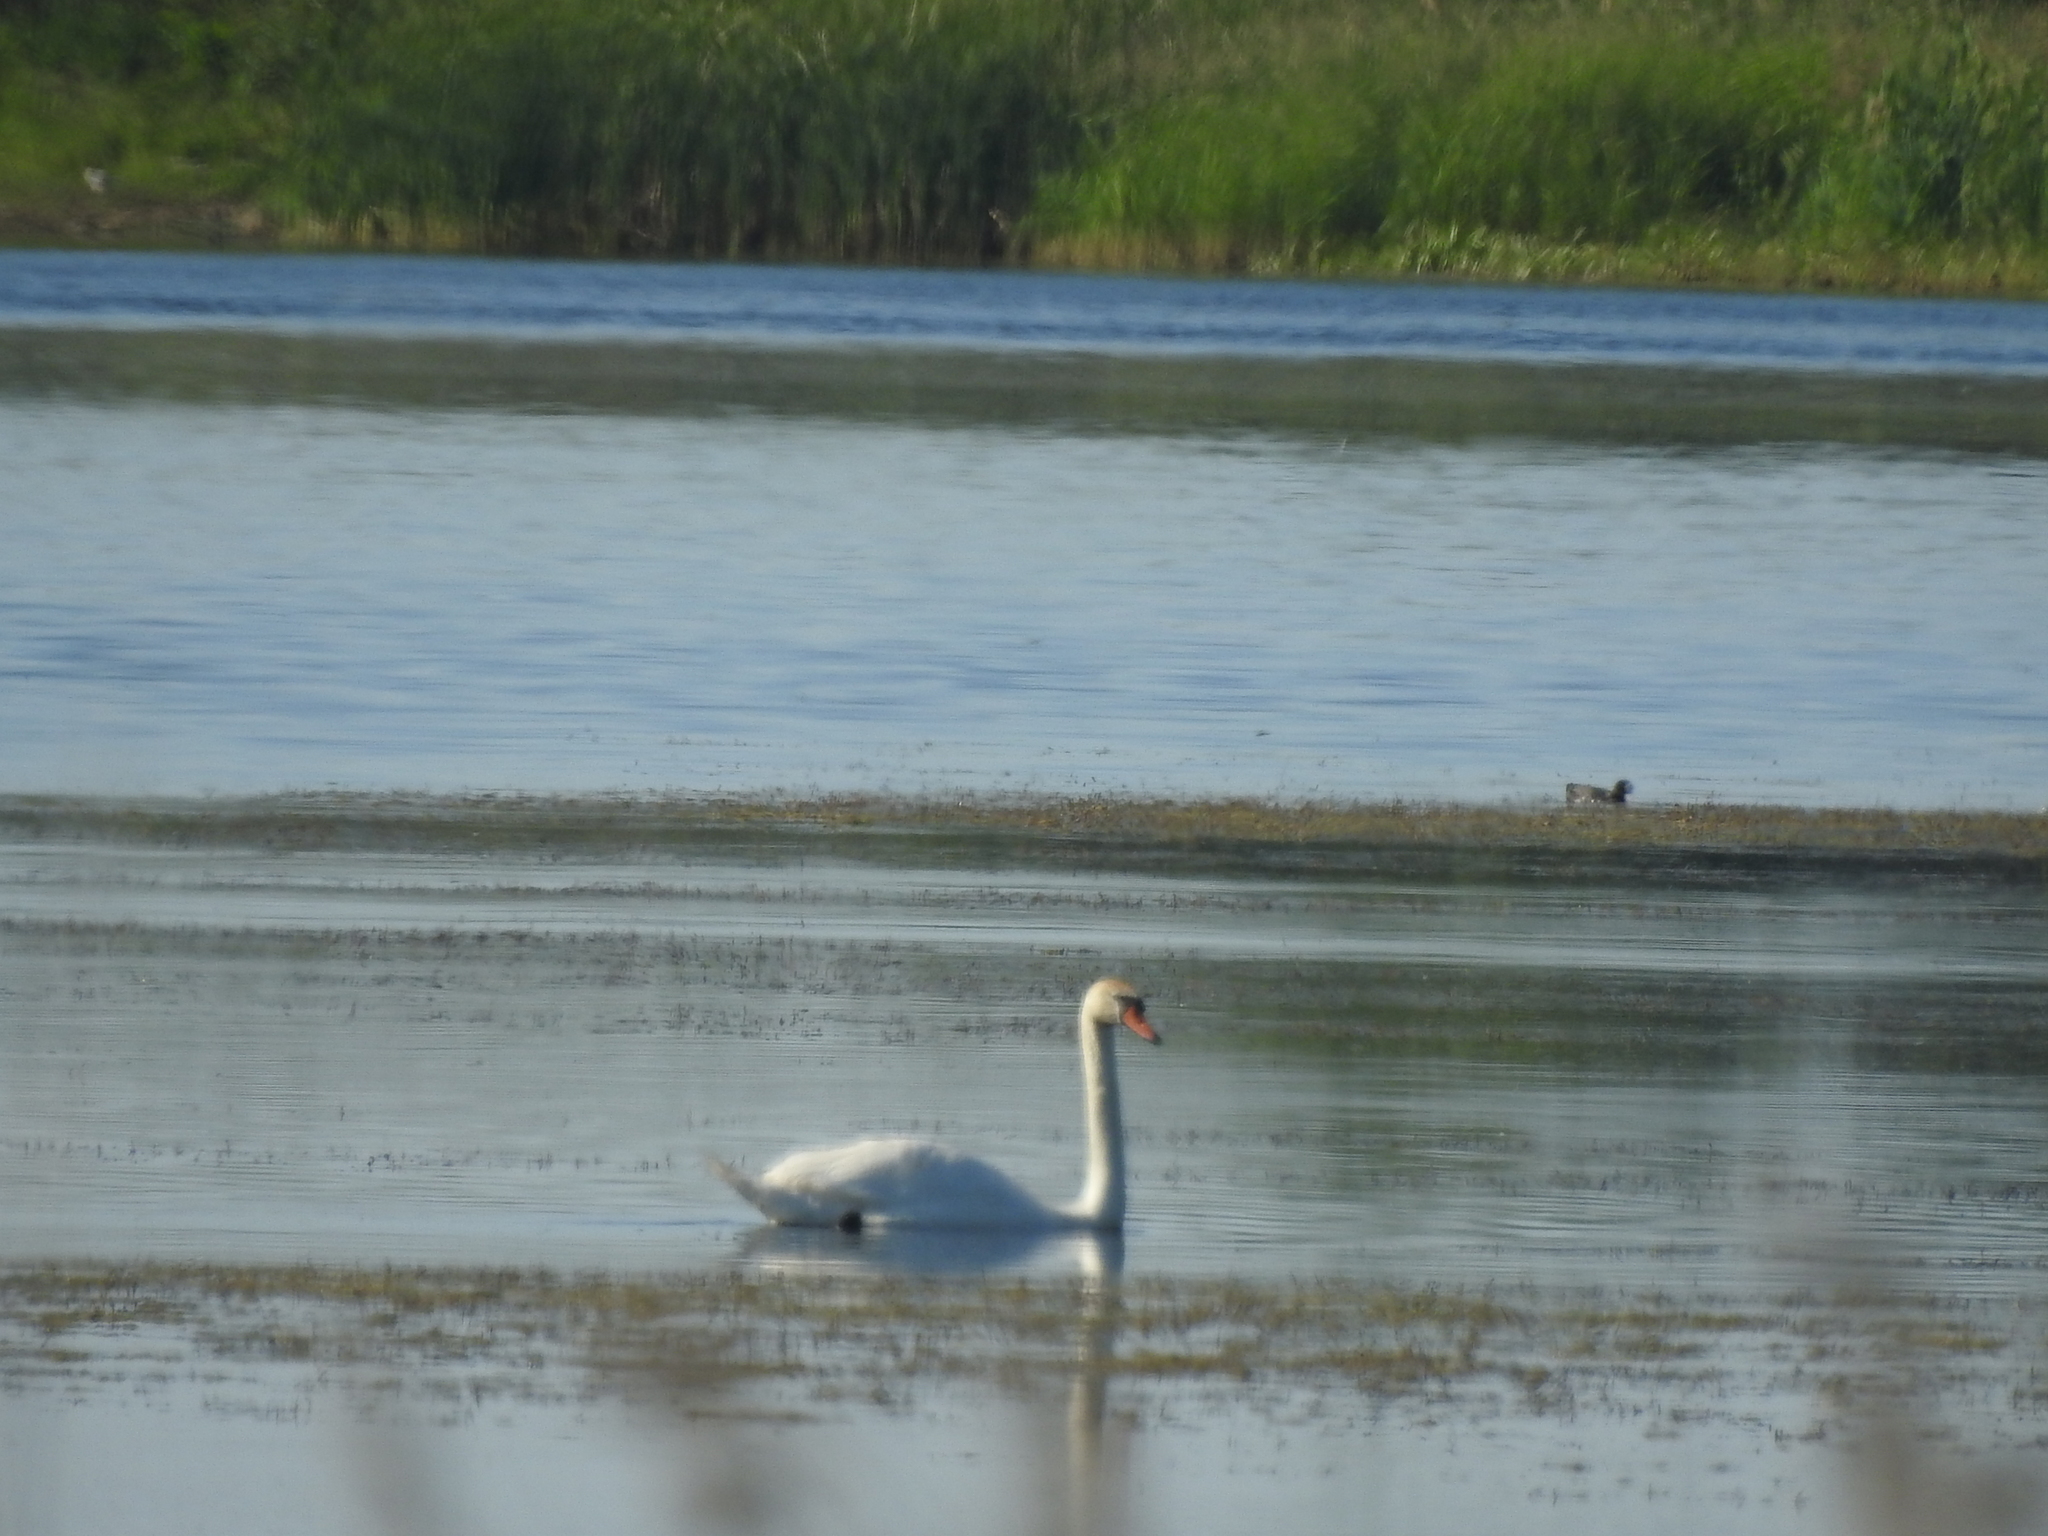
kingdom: Animalia
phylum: Chordata
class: Aves
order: Anseriformes
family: Anatidae
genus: Cygnus
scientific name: Cygnus olor
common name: Mute swan
